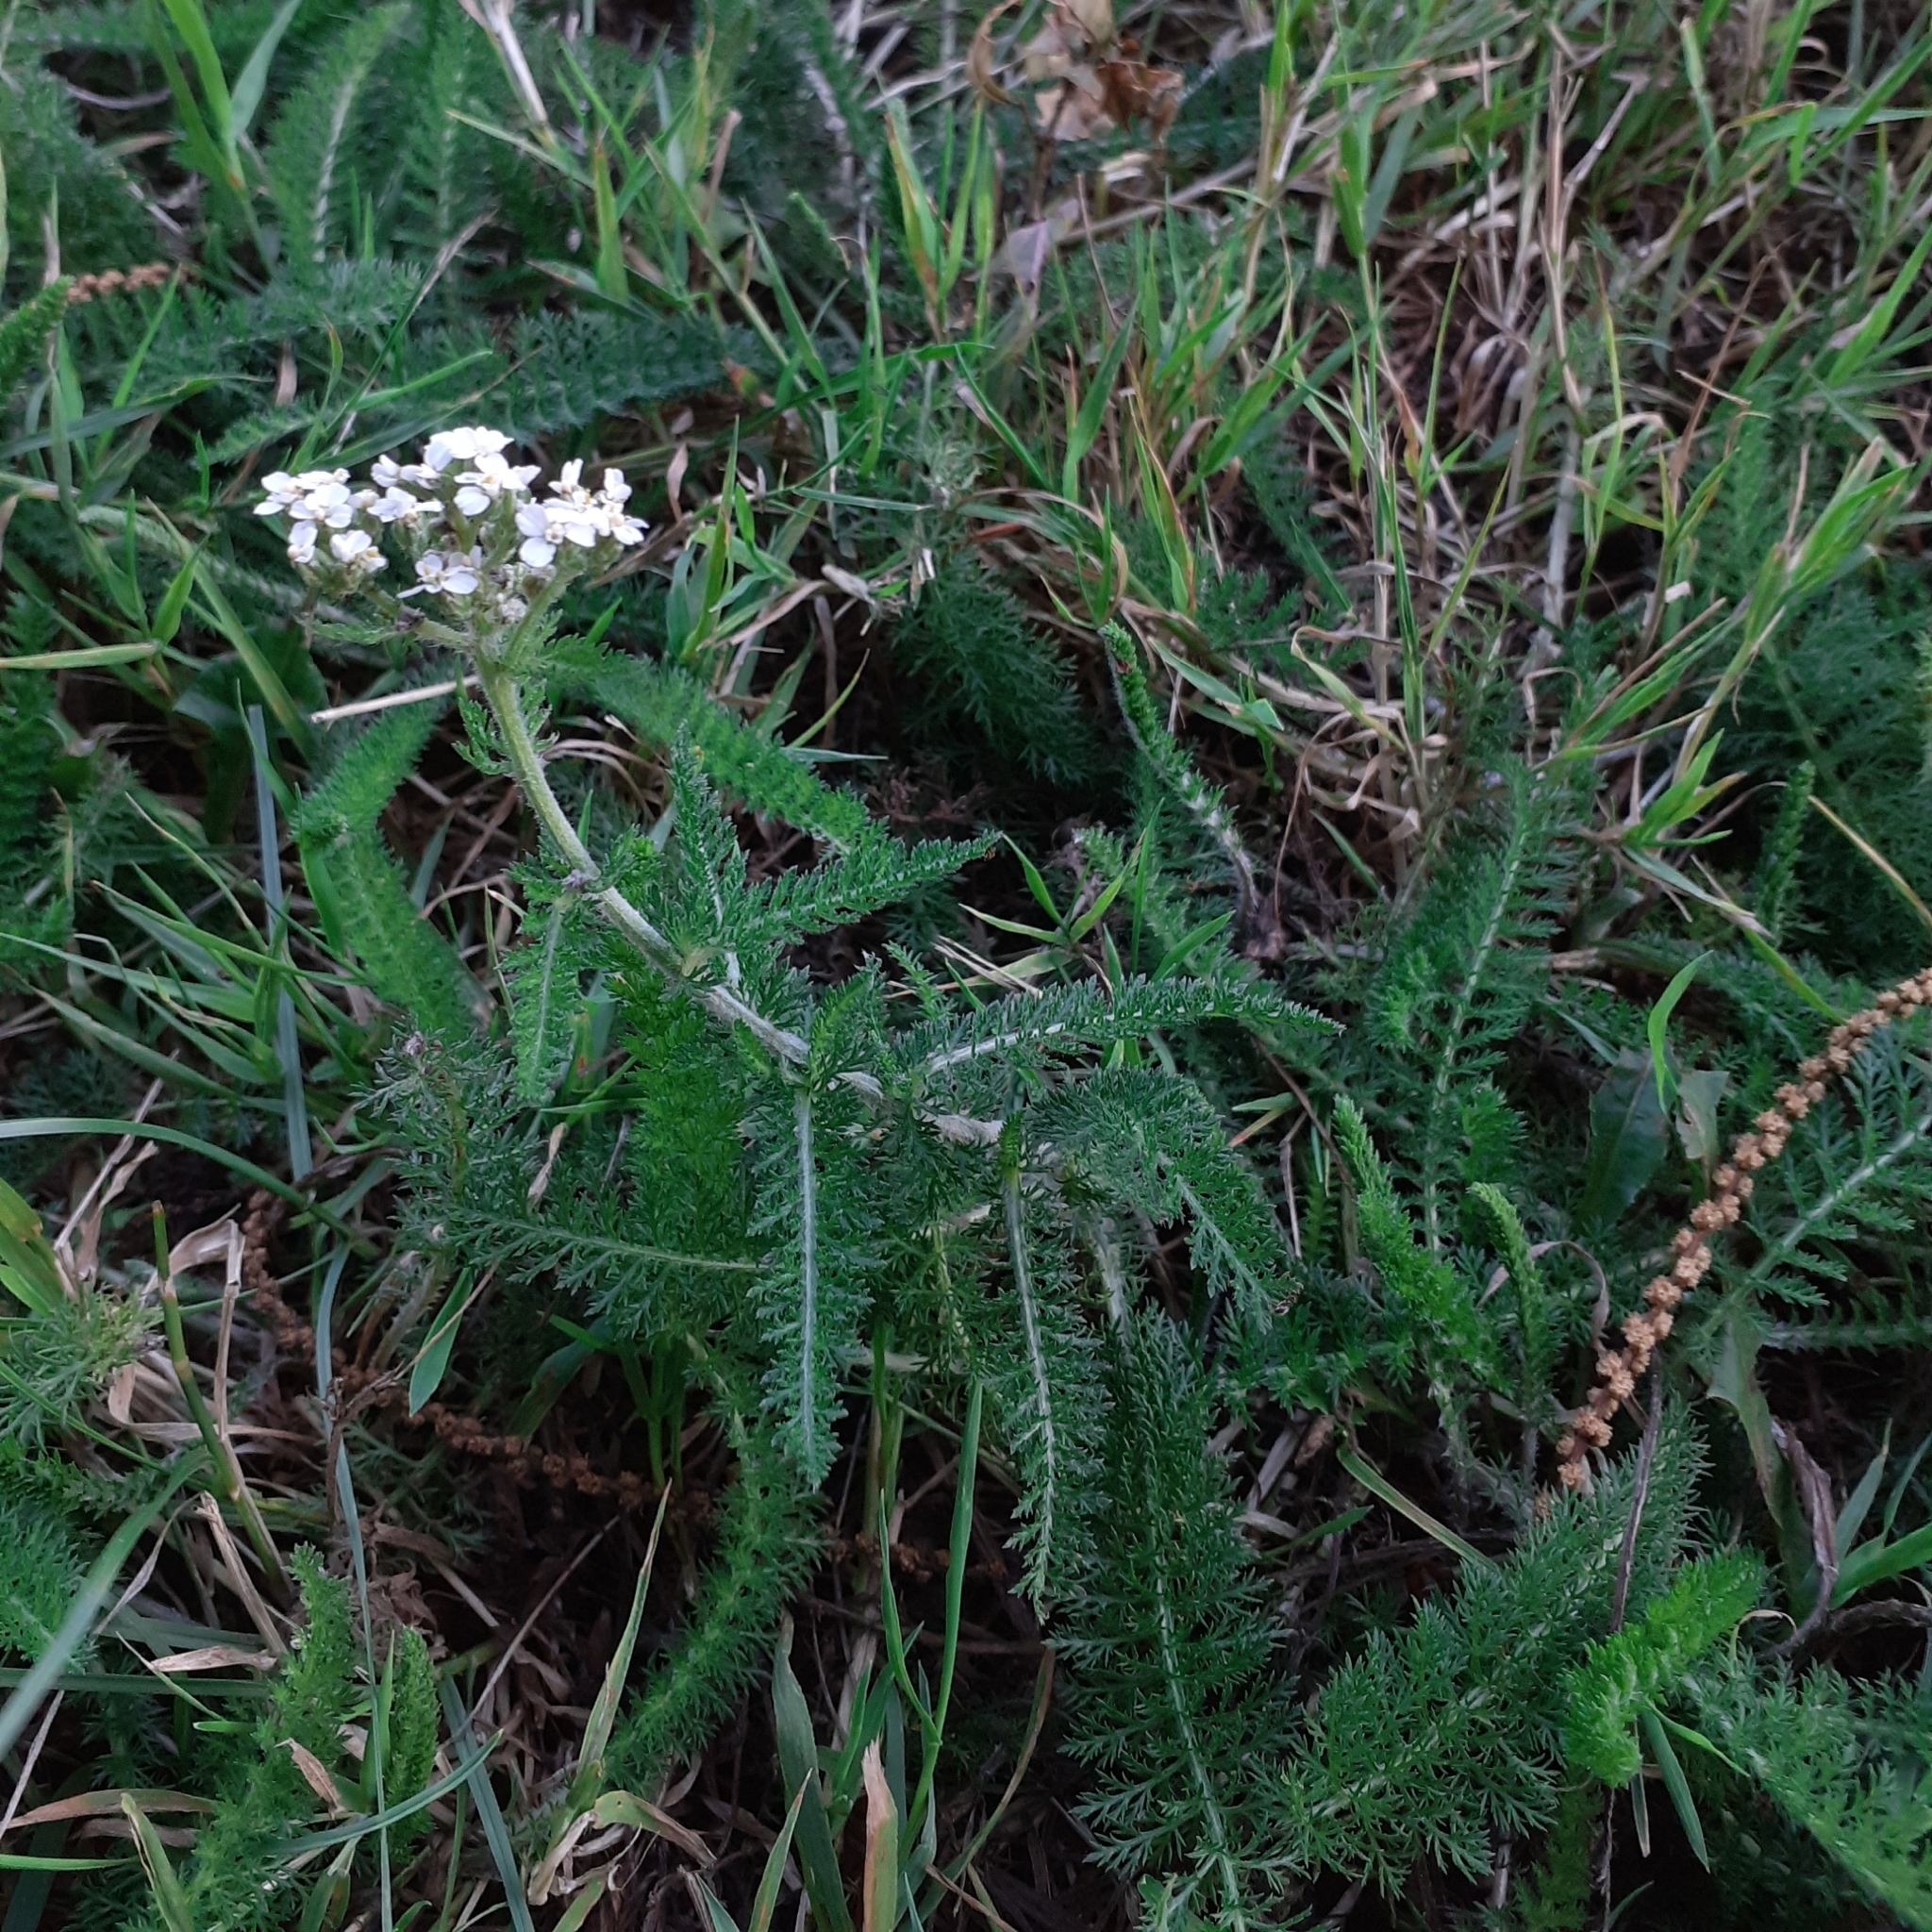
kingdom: Plantae
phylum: Tracheophyta
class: Magnoliopsida
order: Asterales
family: Asteraceae
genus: Achillea
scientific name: Achillea millefolium
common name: Yarrow
